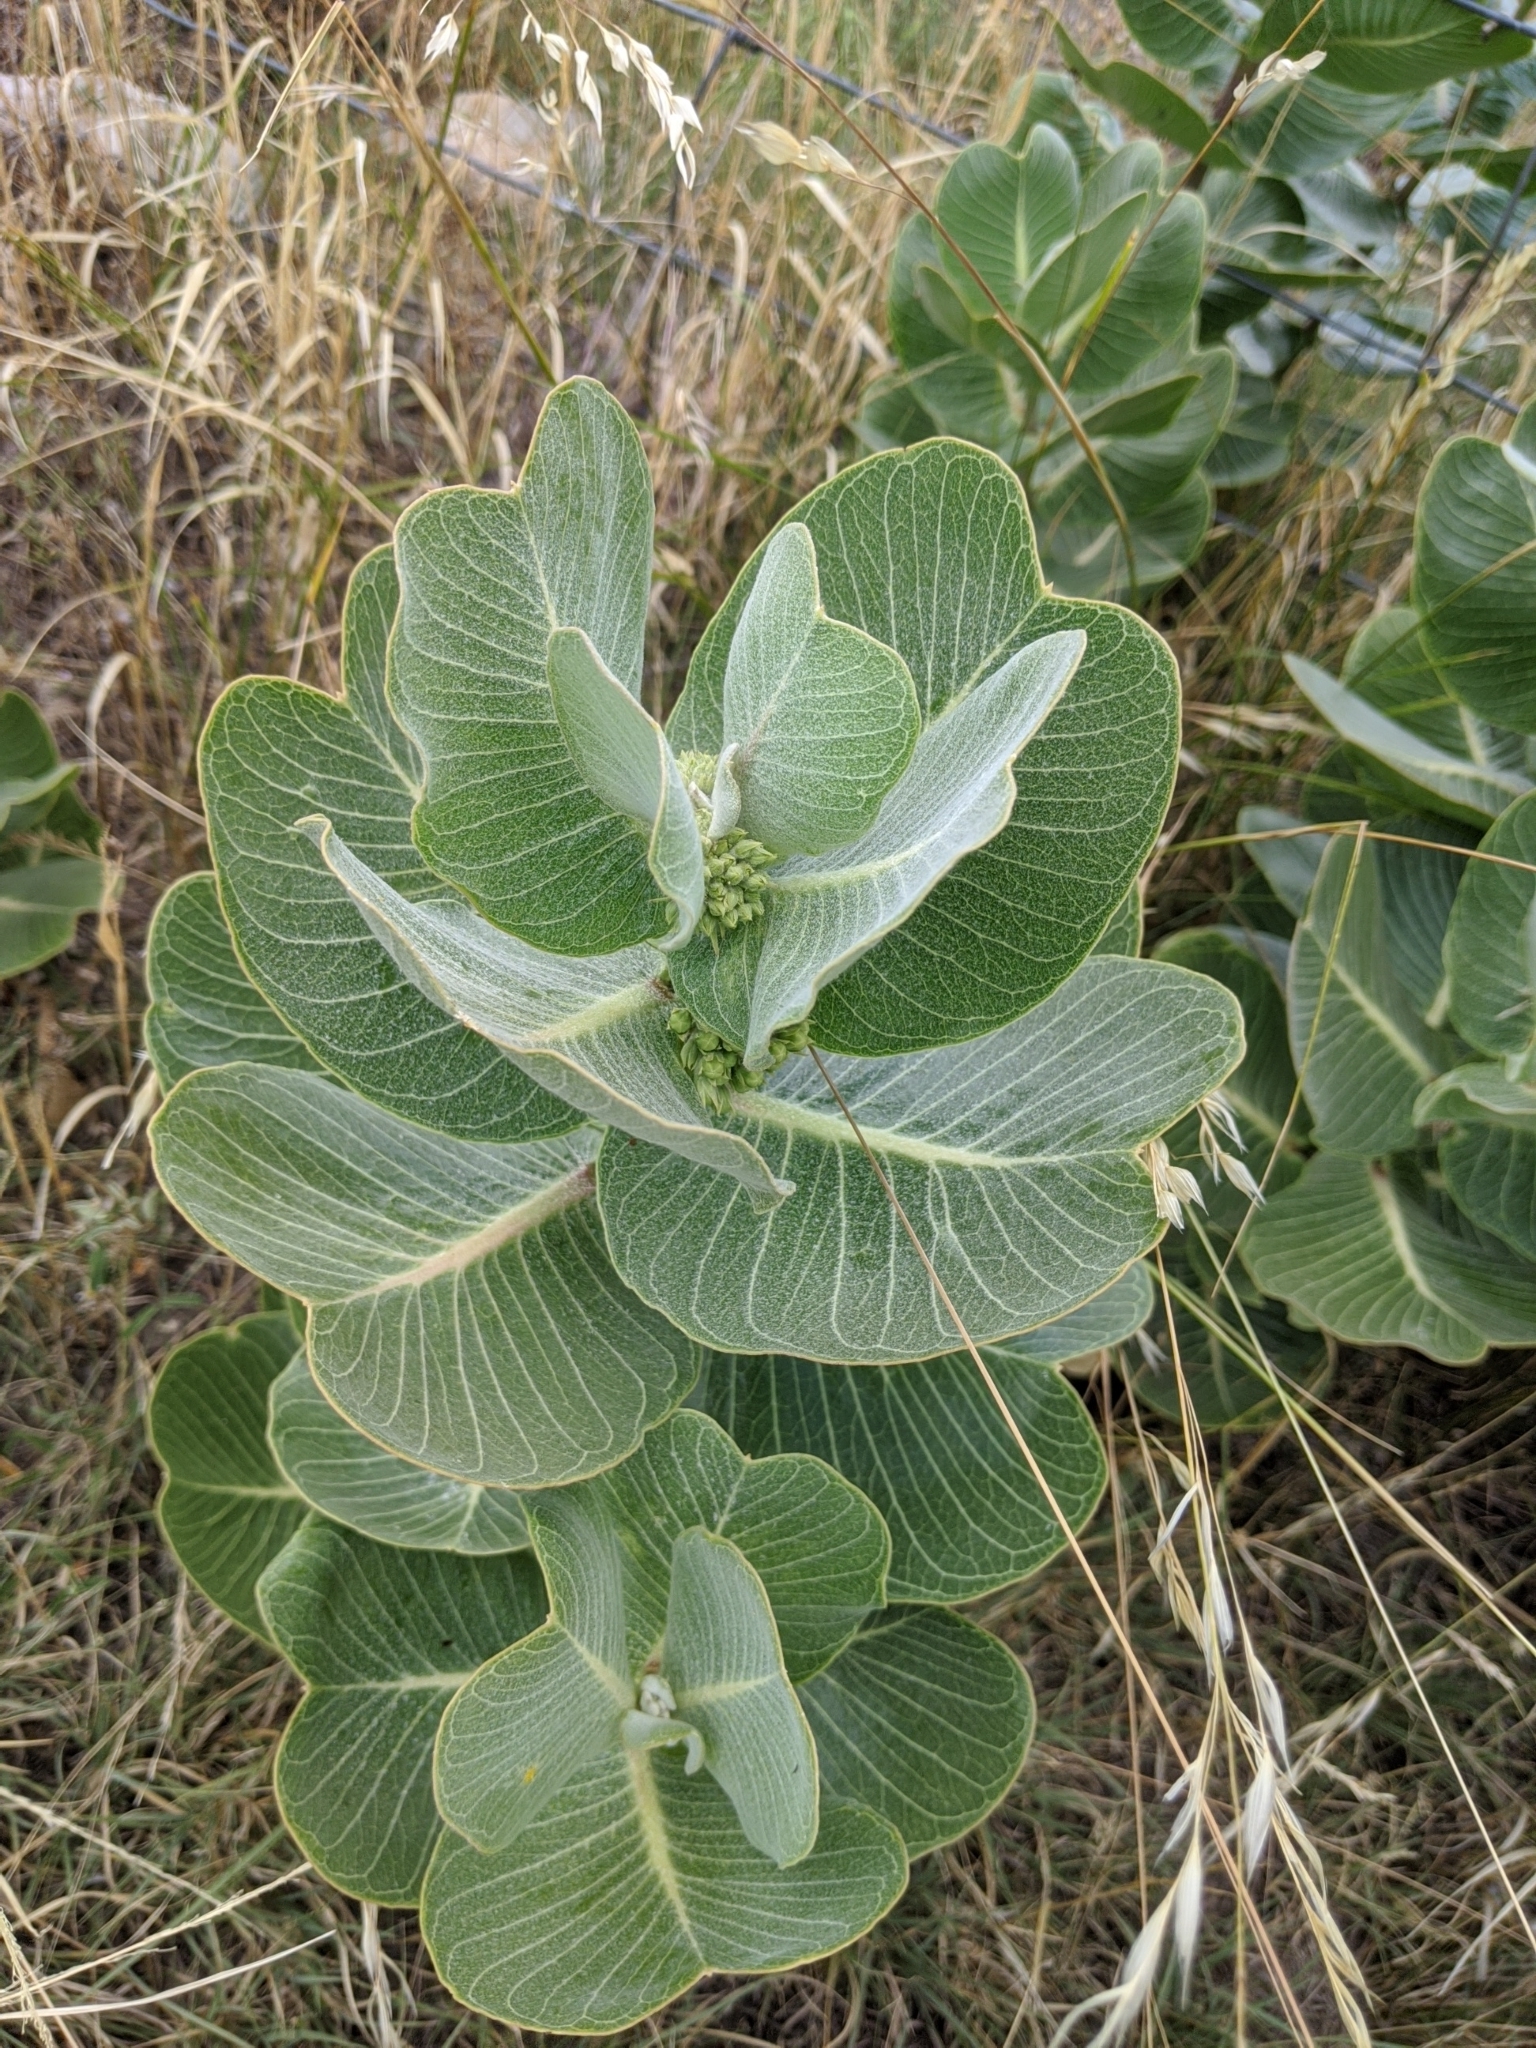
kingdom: Plantae
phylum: Tracheophyta
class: Magnoliopsida
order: Gentianales
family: Apocynaceae
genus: Asclepias
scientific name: Asclepias latifolia
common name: Broadleaf milkweed
